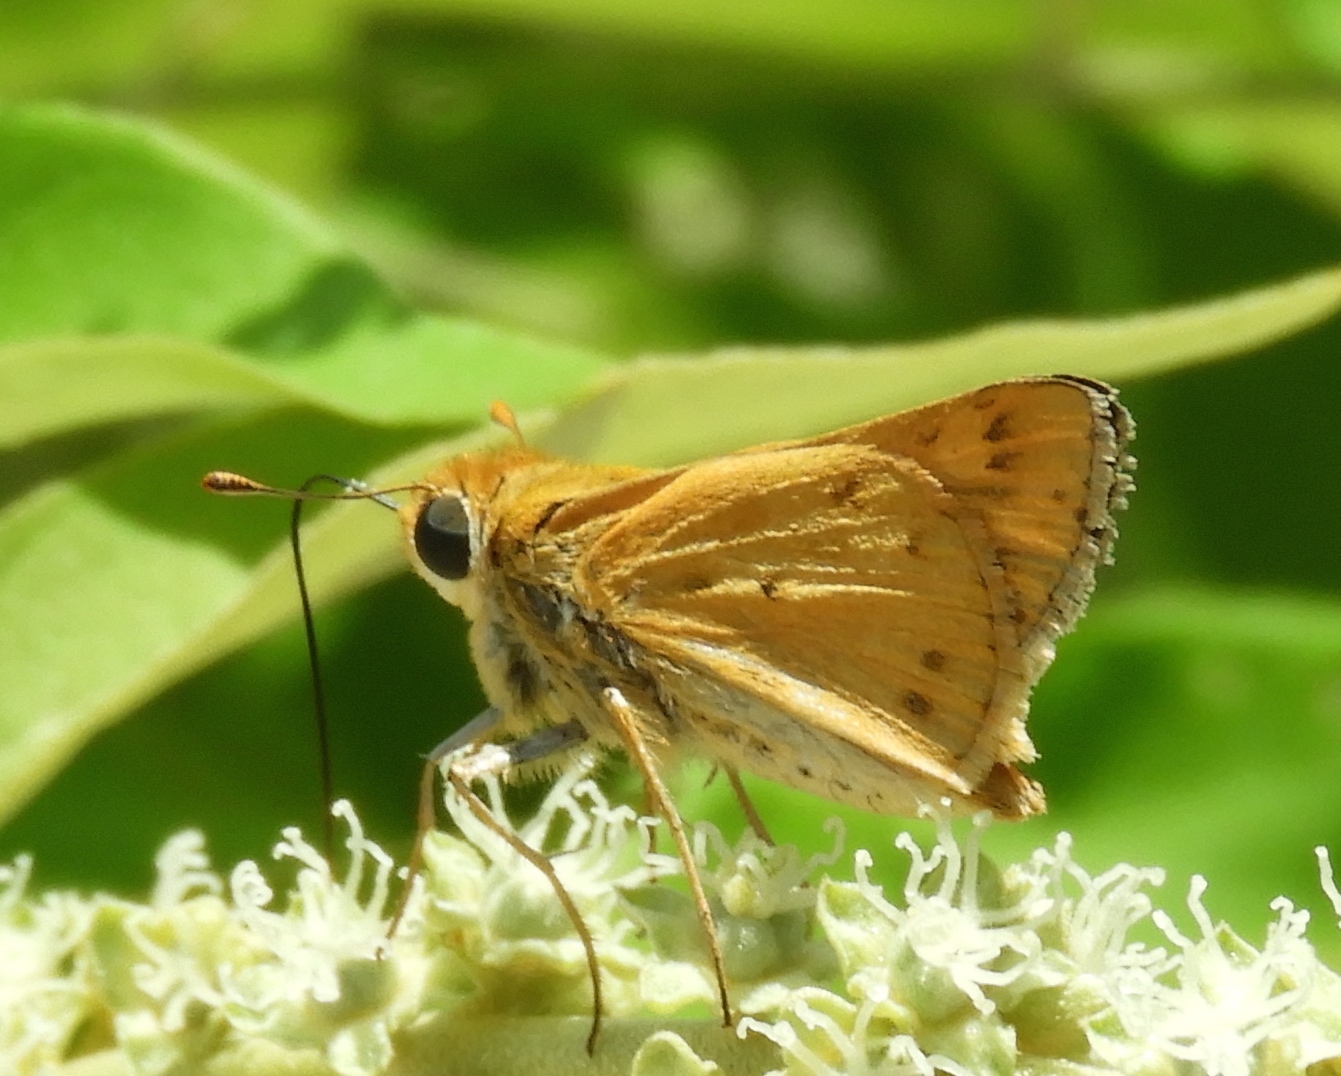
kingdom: Animalia
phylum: Arthropoda
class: Insecta
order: Lepidoptera
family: Hesperiidae
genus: Hylephila
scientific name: Hylephila phyleus
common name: Fiery skipper
